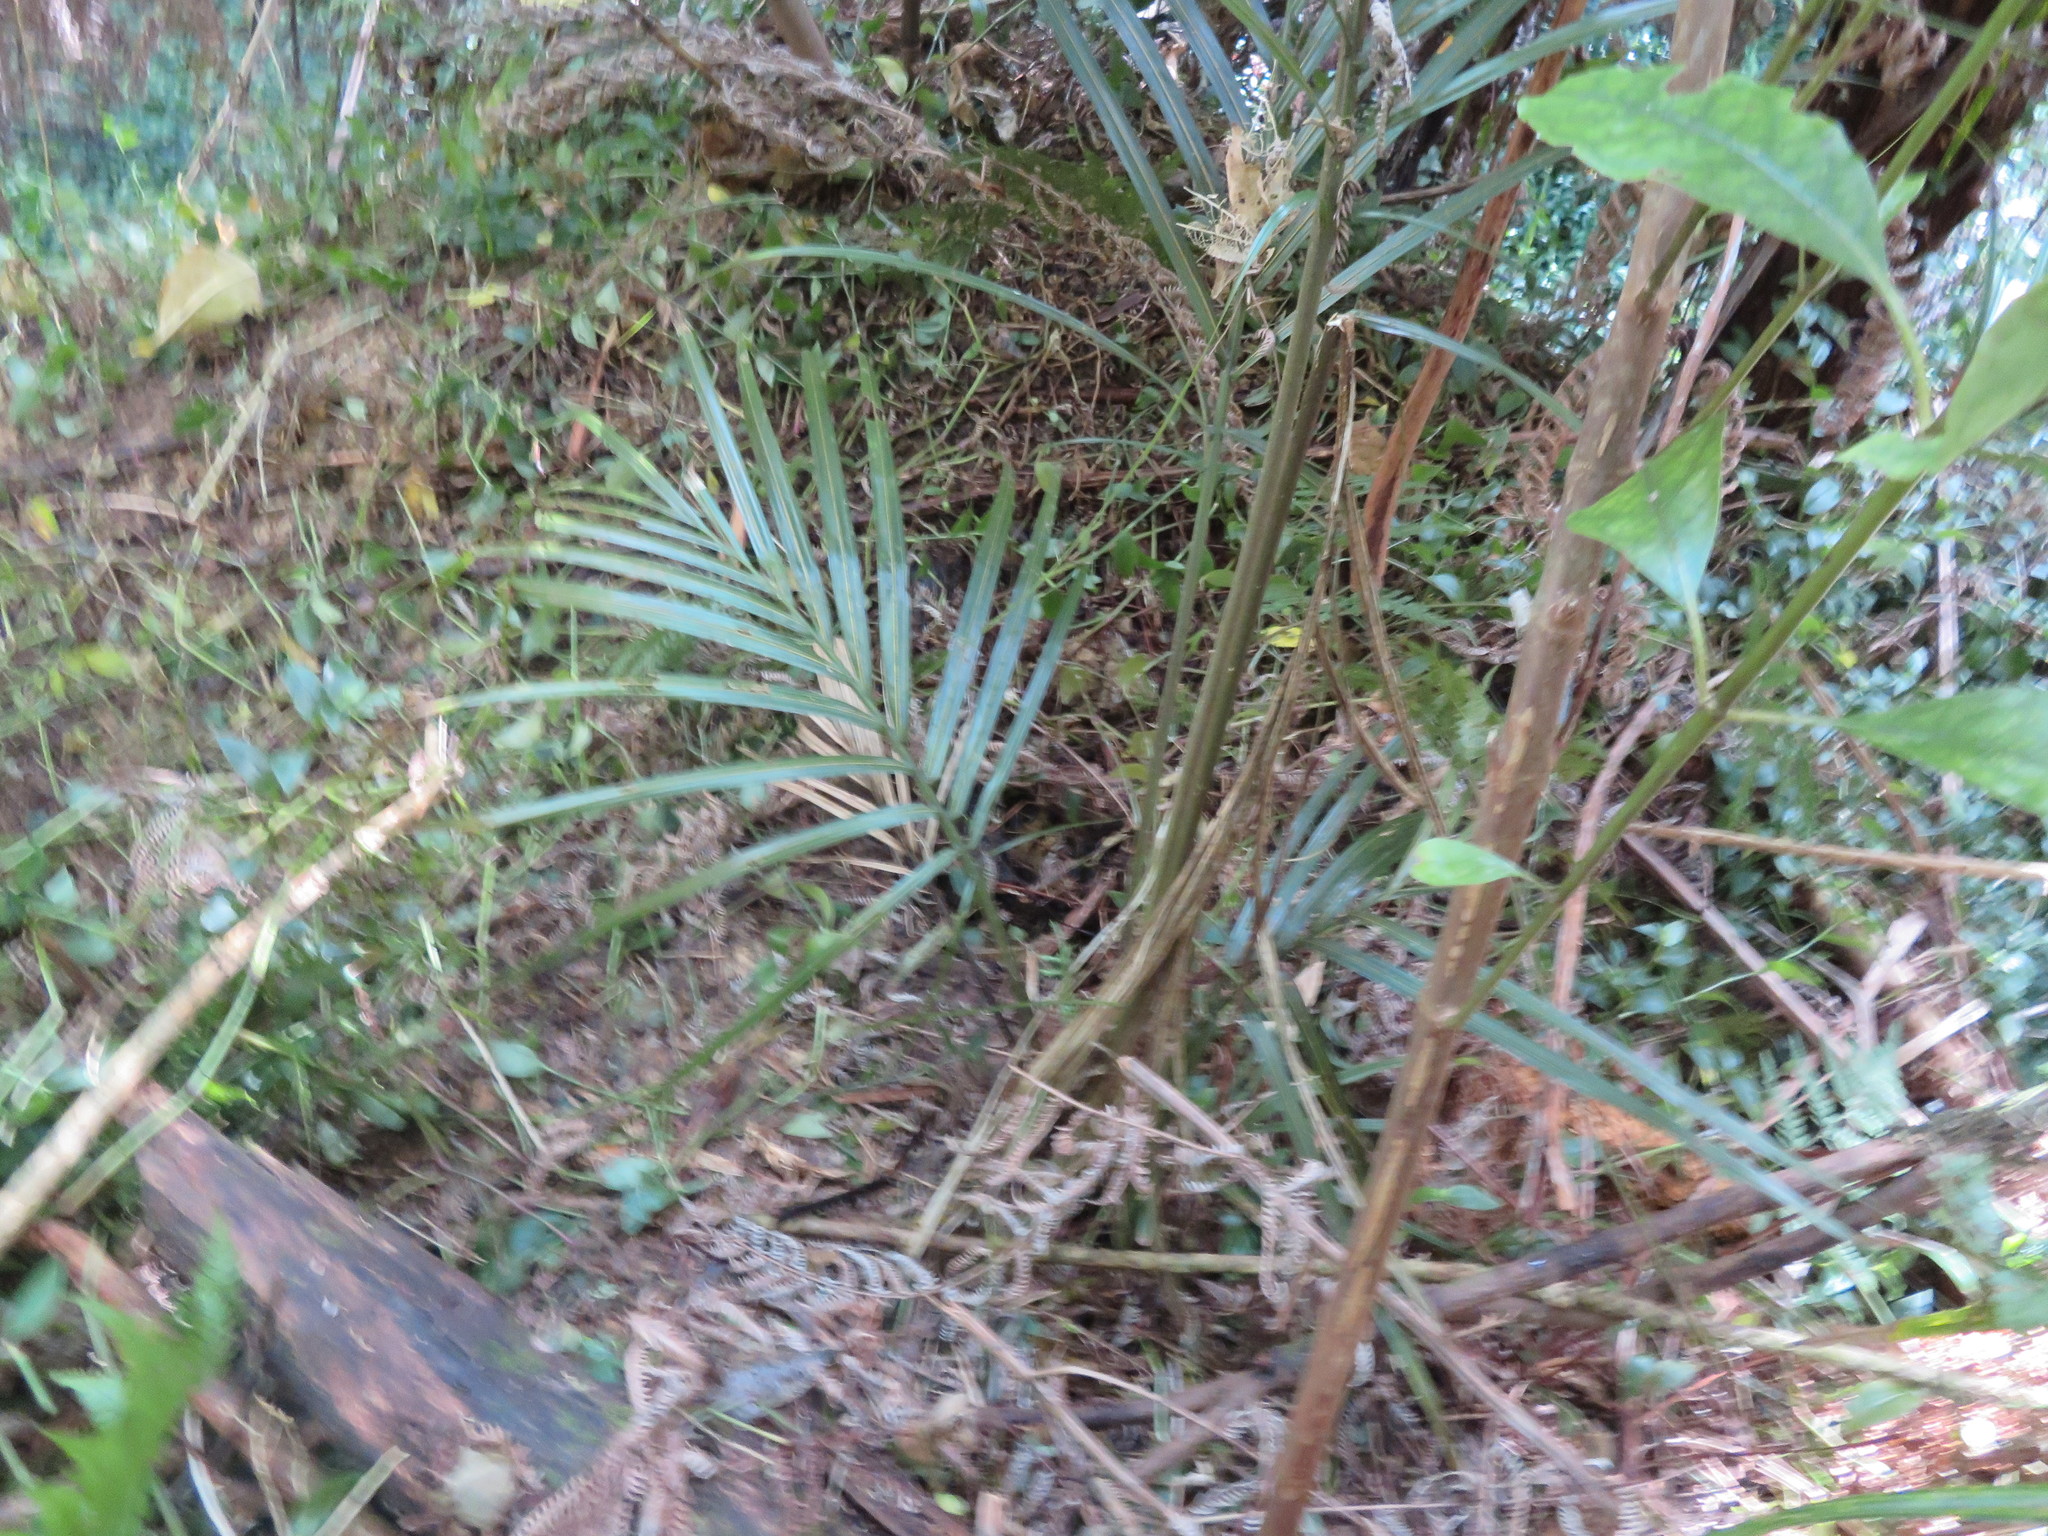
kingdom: Plantae
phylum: Tracheophyta
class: Liliopsida
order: Arecales
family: Arecaceae
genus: Rhopalostylis
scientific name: Rhopalostylis sapida
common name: Feather-duster palm
